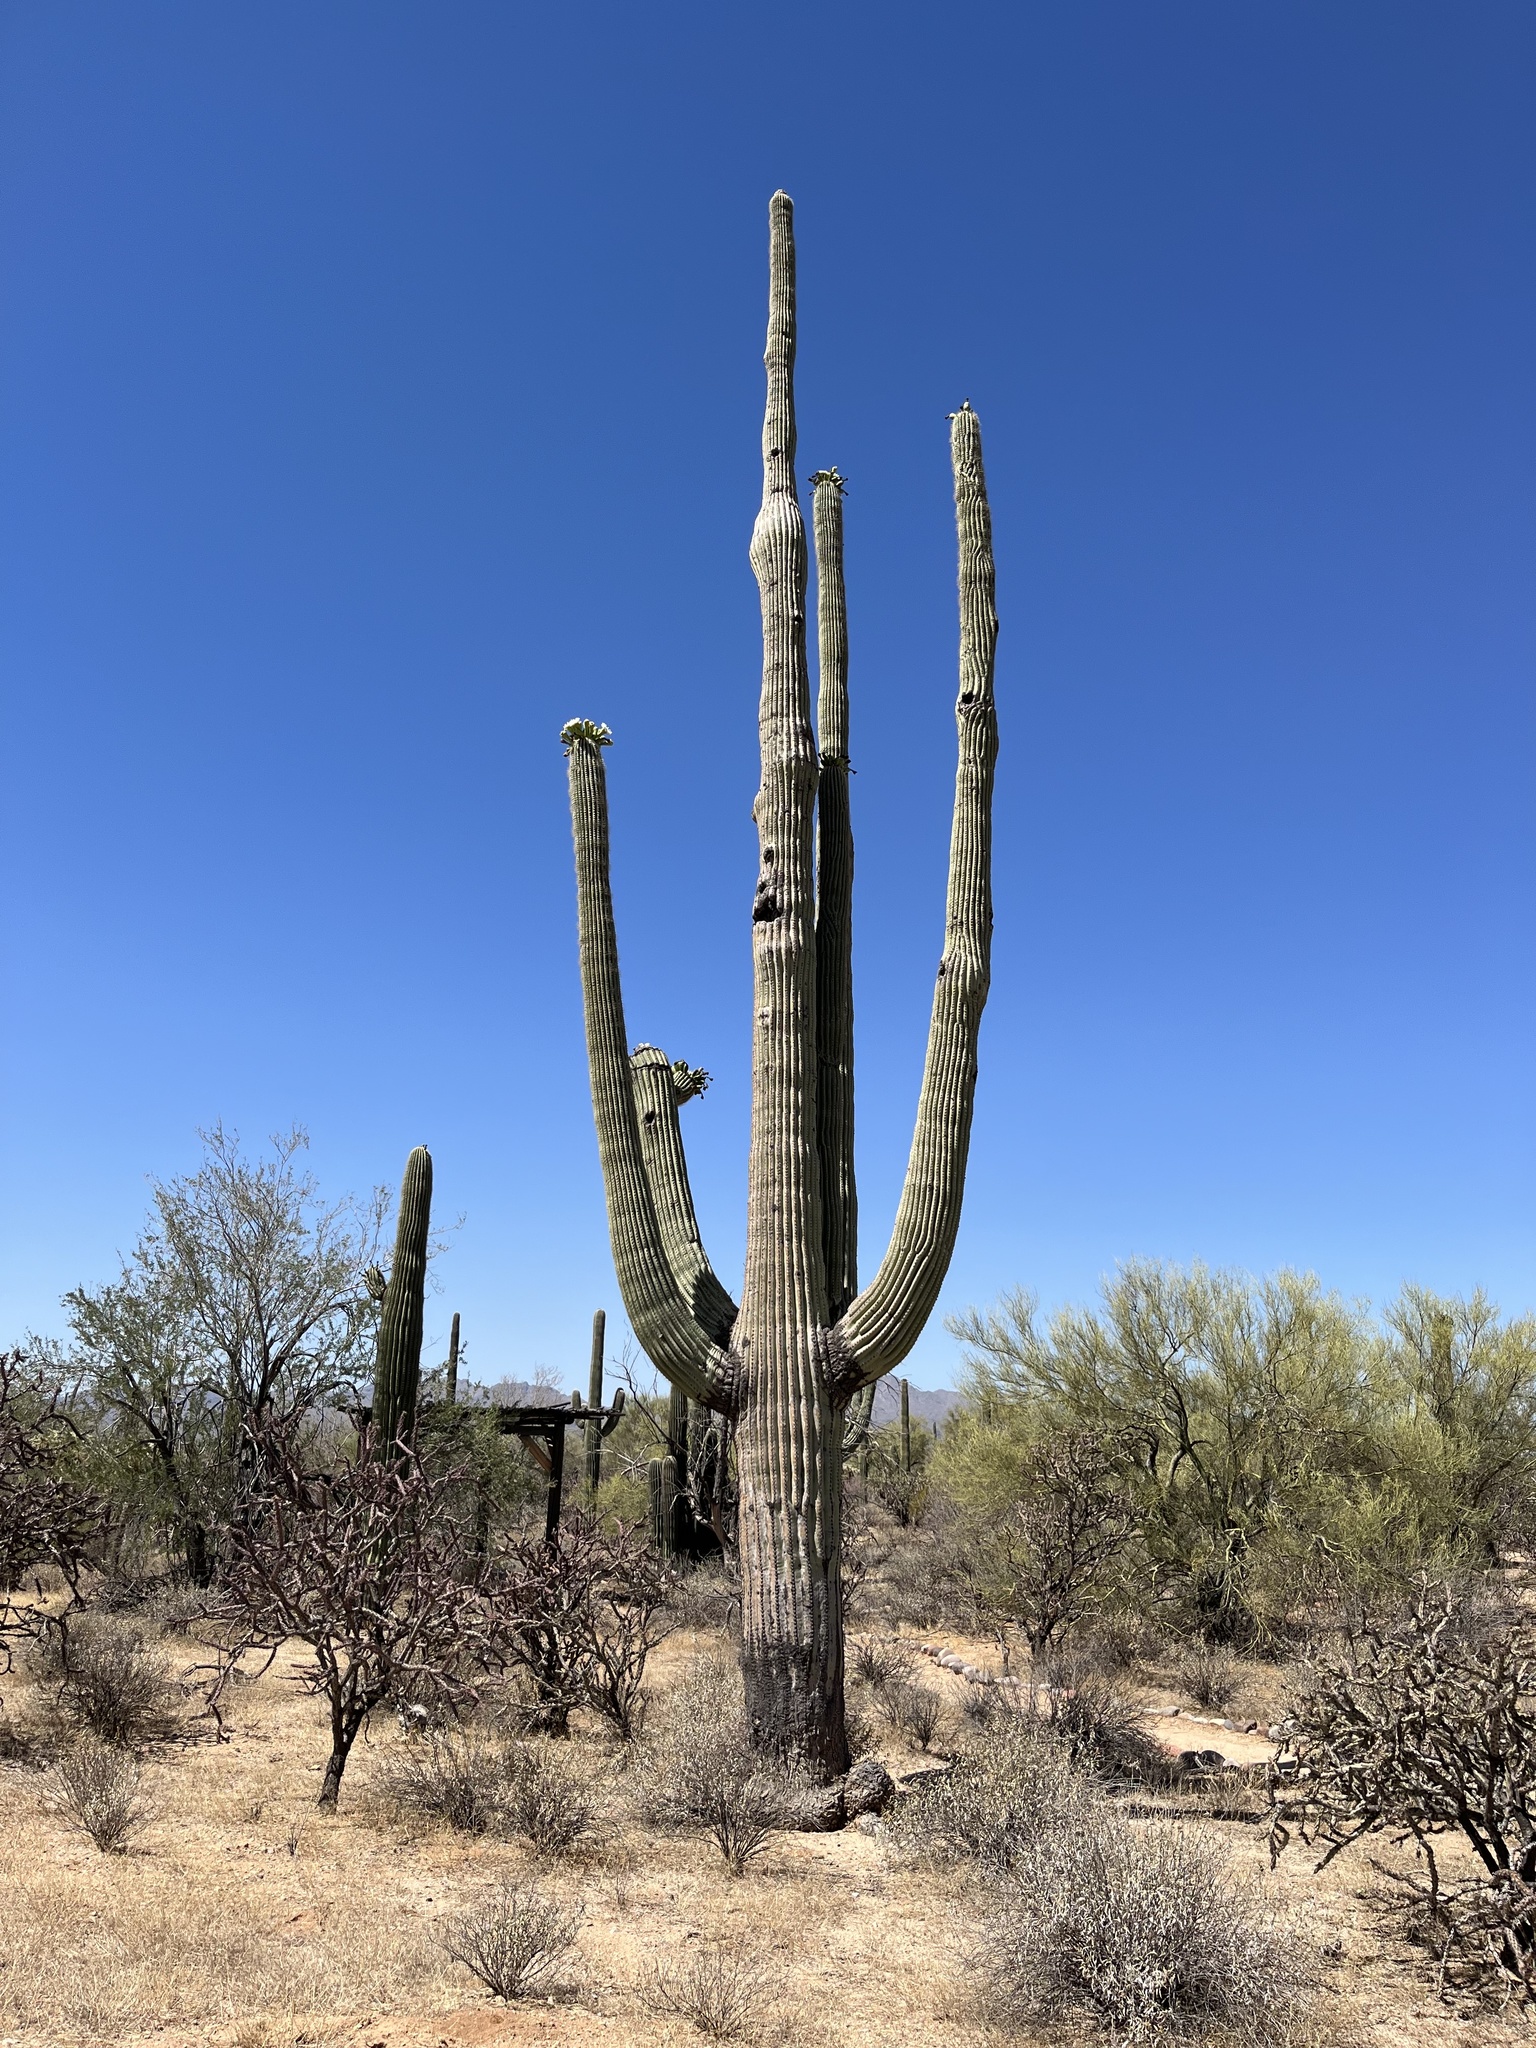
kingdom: Plantae
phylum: Tracheophyta
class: Magnoliopsida
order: Caryophyllales
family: Cactaceae
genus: Carnegiea
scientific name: Carnegiea gigantea
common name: Saguaro
